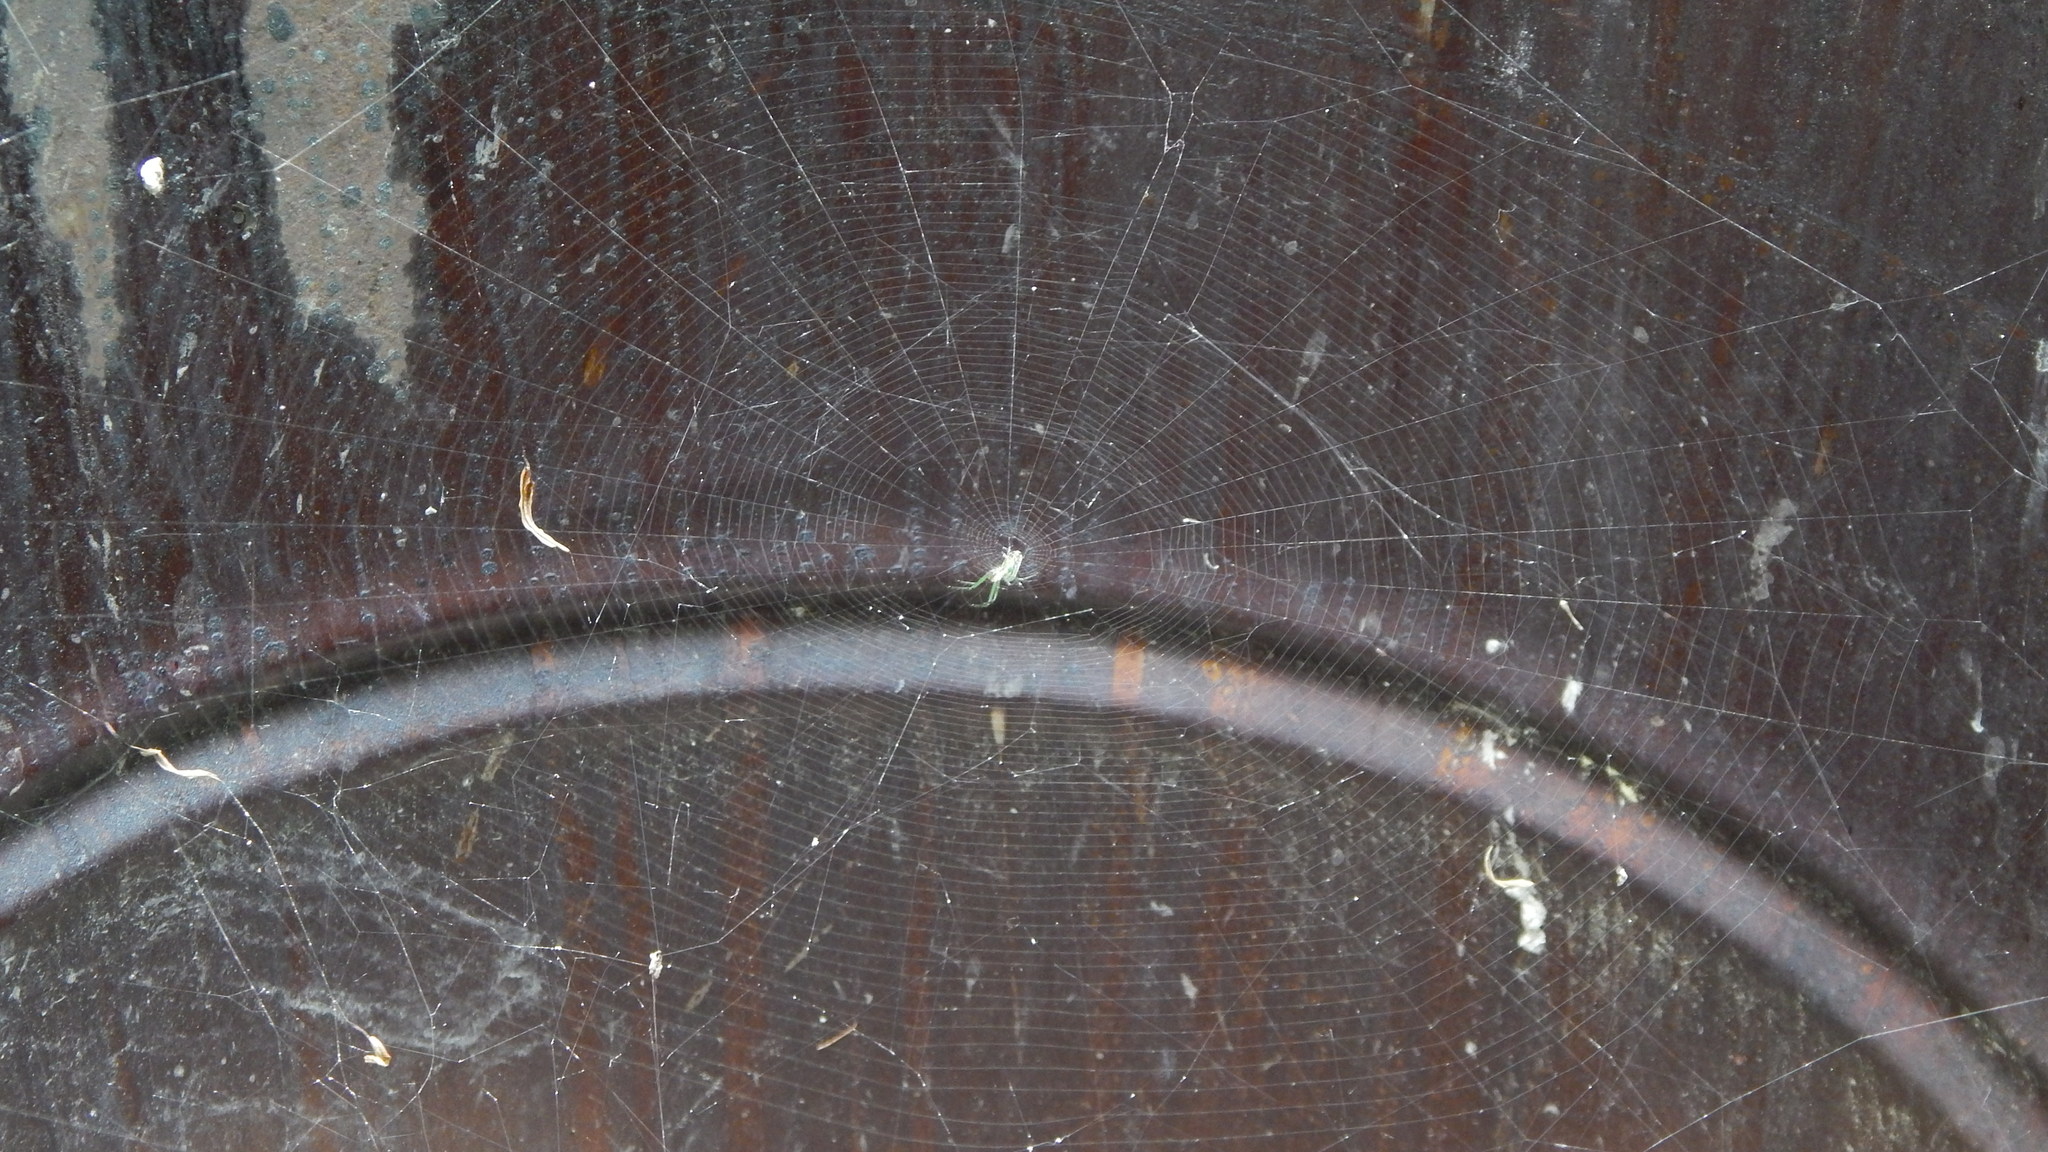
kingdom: Animalia
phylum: Arthropoda
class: Arachnida
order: Araneae
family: Tetragnathidae
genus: Leucauge
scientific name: Leucauge venusta
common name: Longjawed orb weavers
